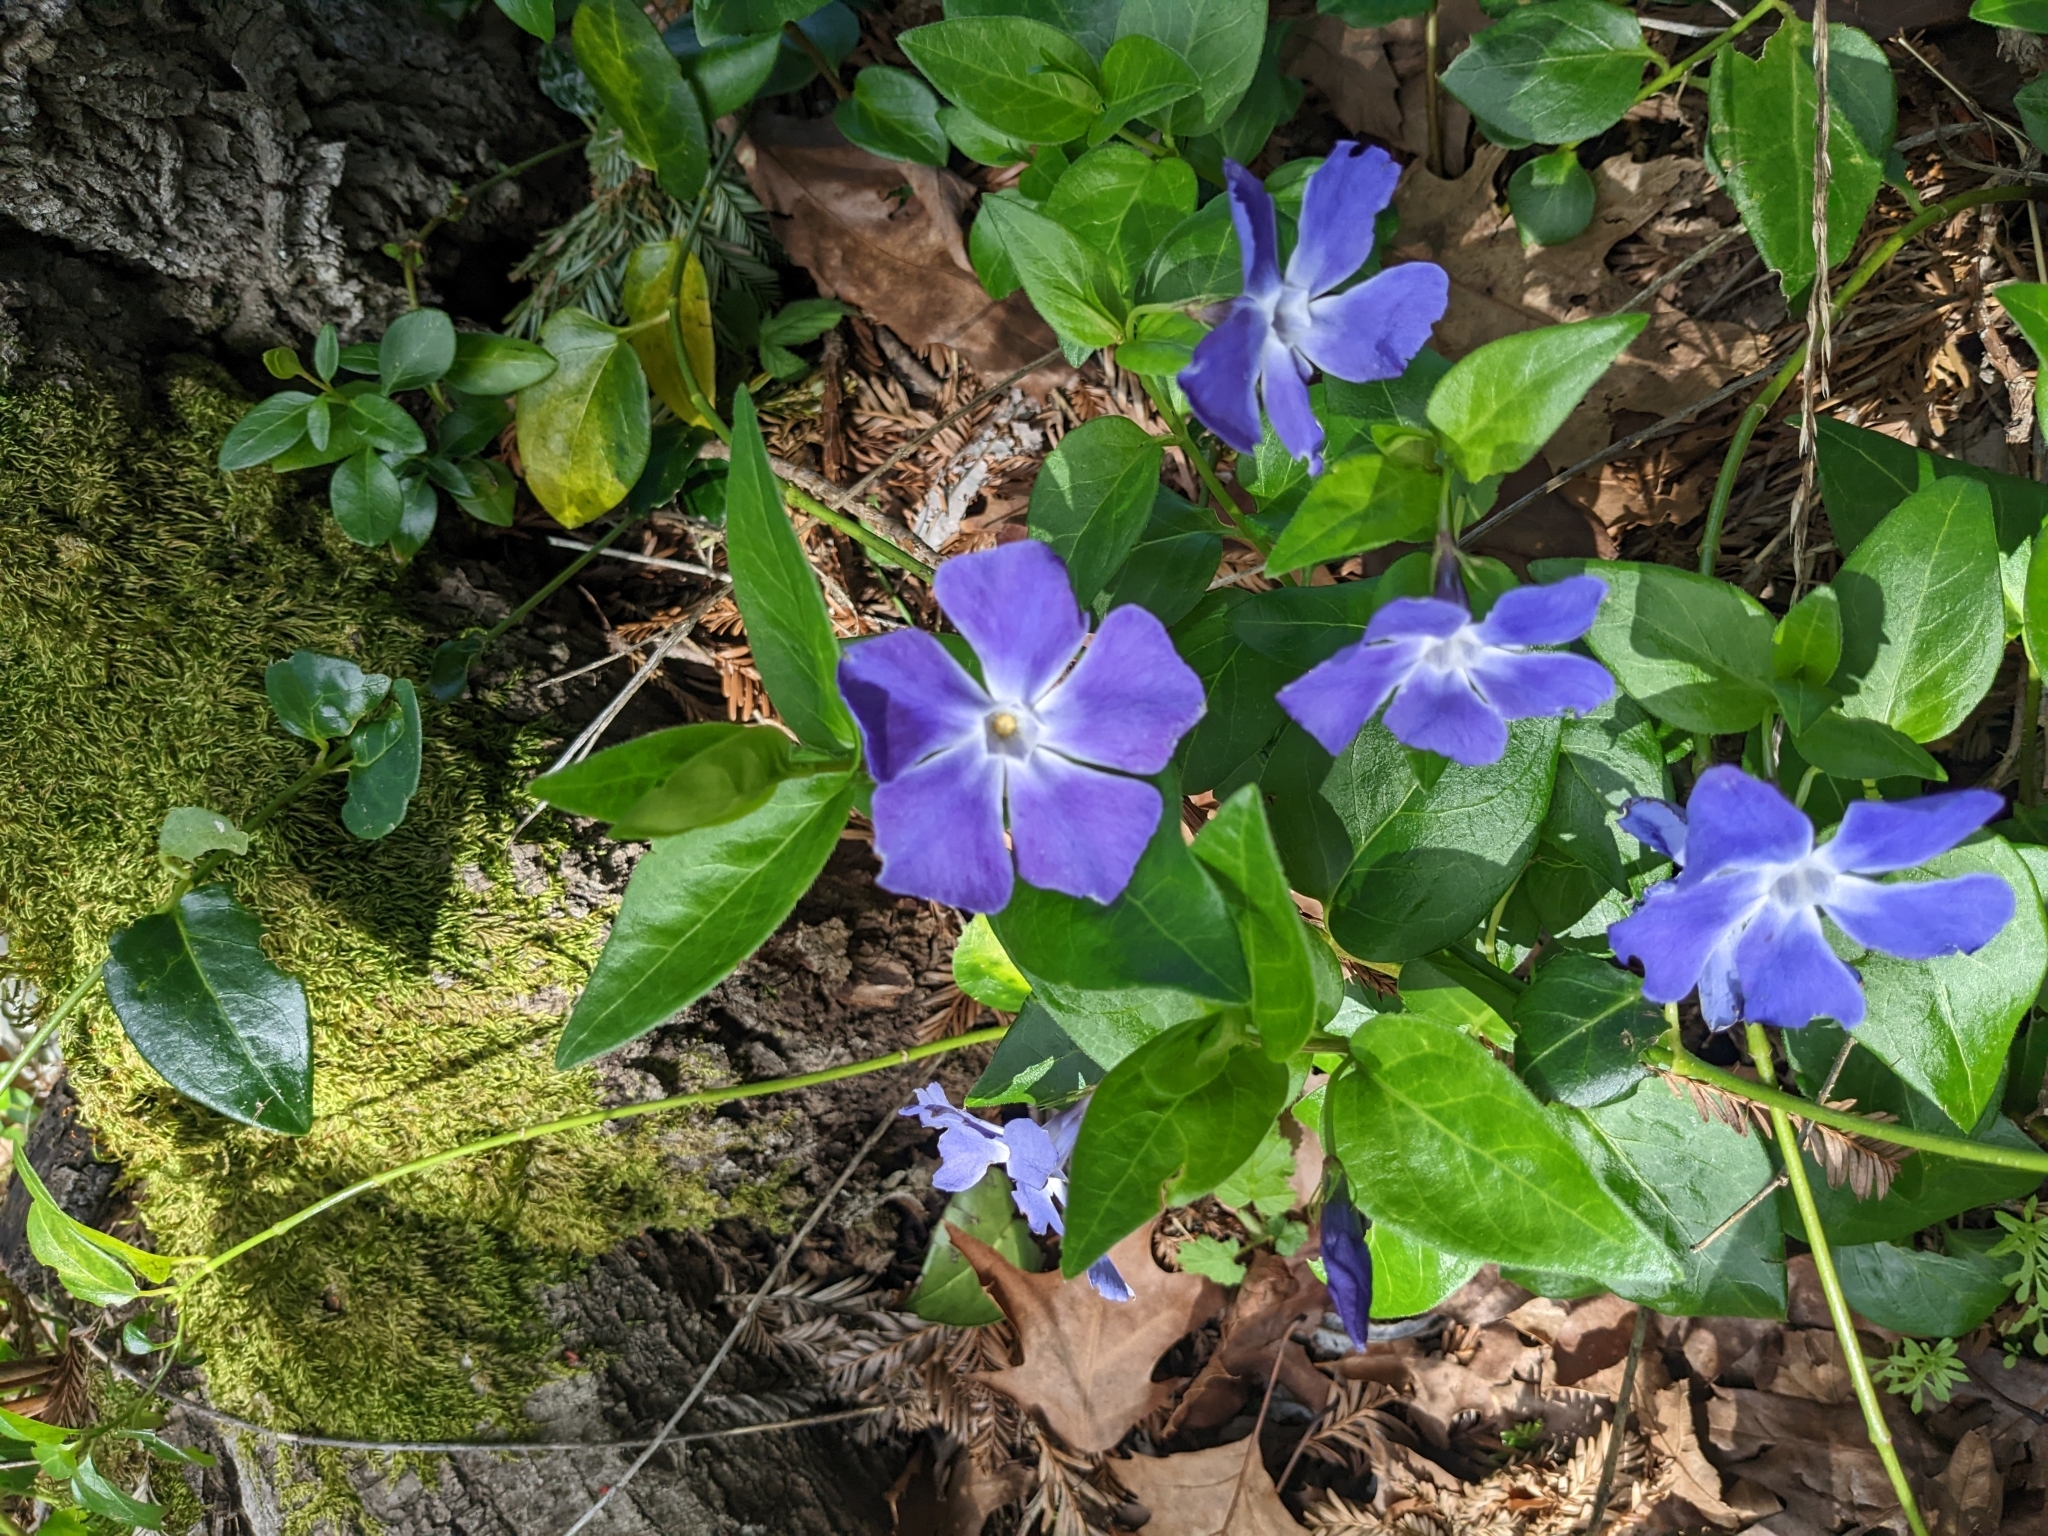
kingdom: Plantae
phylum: Tracheophyta
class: Magnoliopsida
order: Gentianales
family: Apocynaceae
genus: Vinca
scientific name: Vinca major
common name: Greater periwinkle
